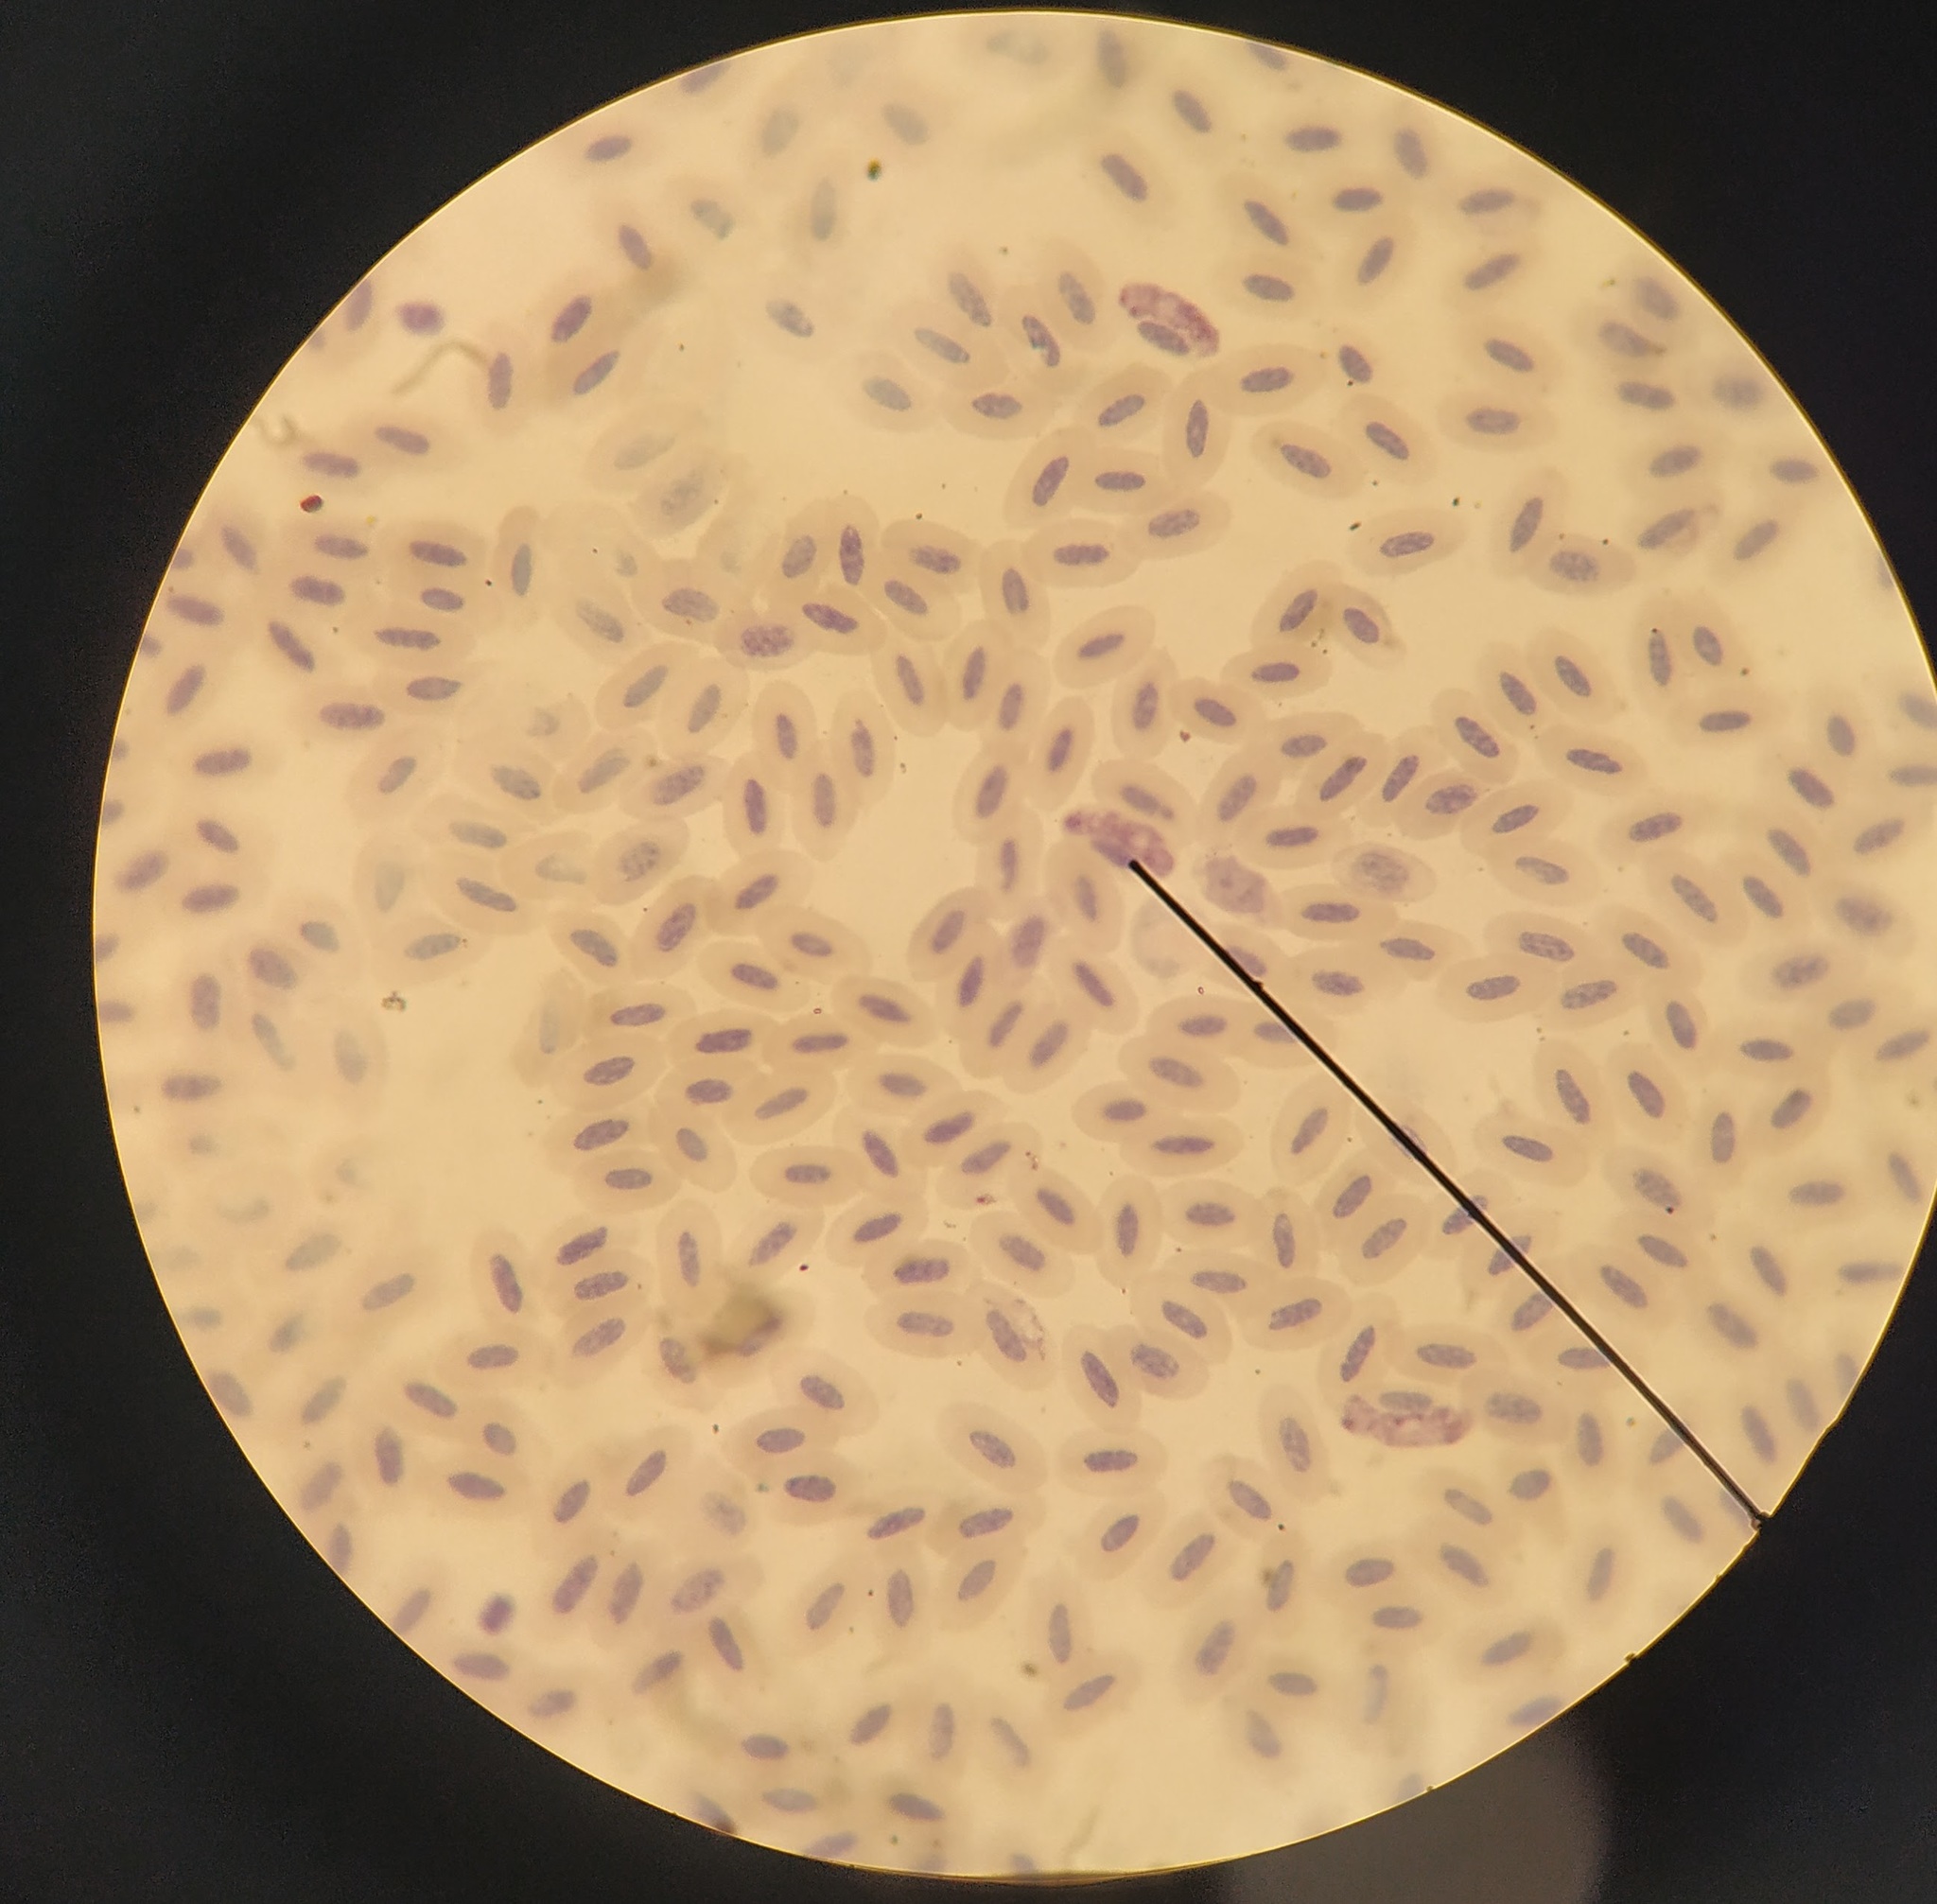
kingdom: Chromista
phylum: Myzozoa
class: Aconoidasida
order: Haemospororida
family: Plasmodiidae
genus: Haemoproteus
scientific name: Haemoproteus
